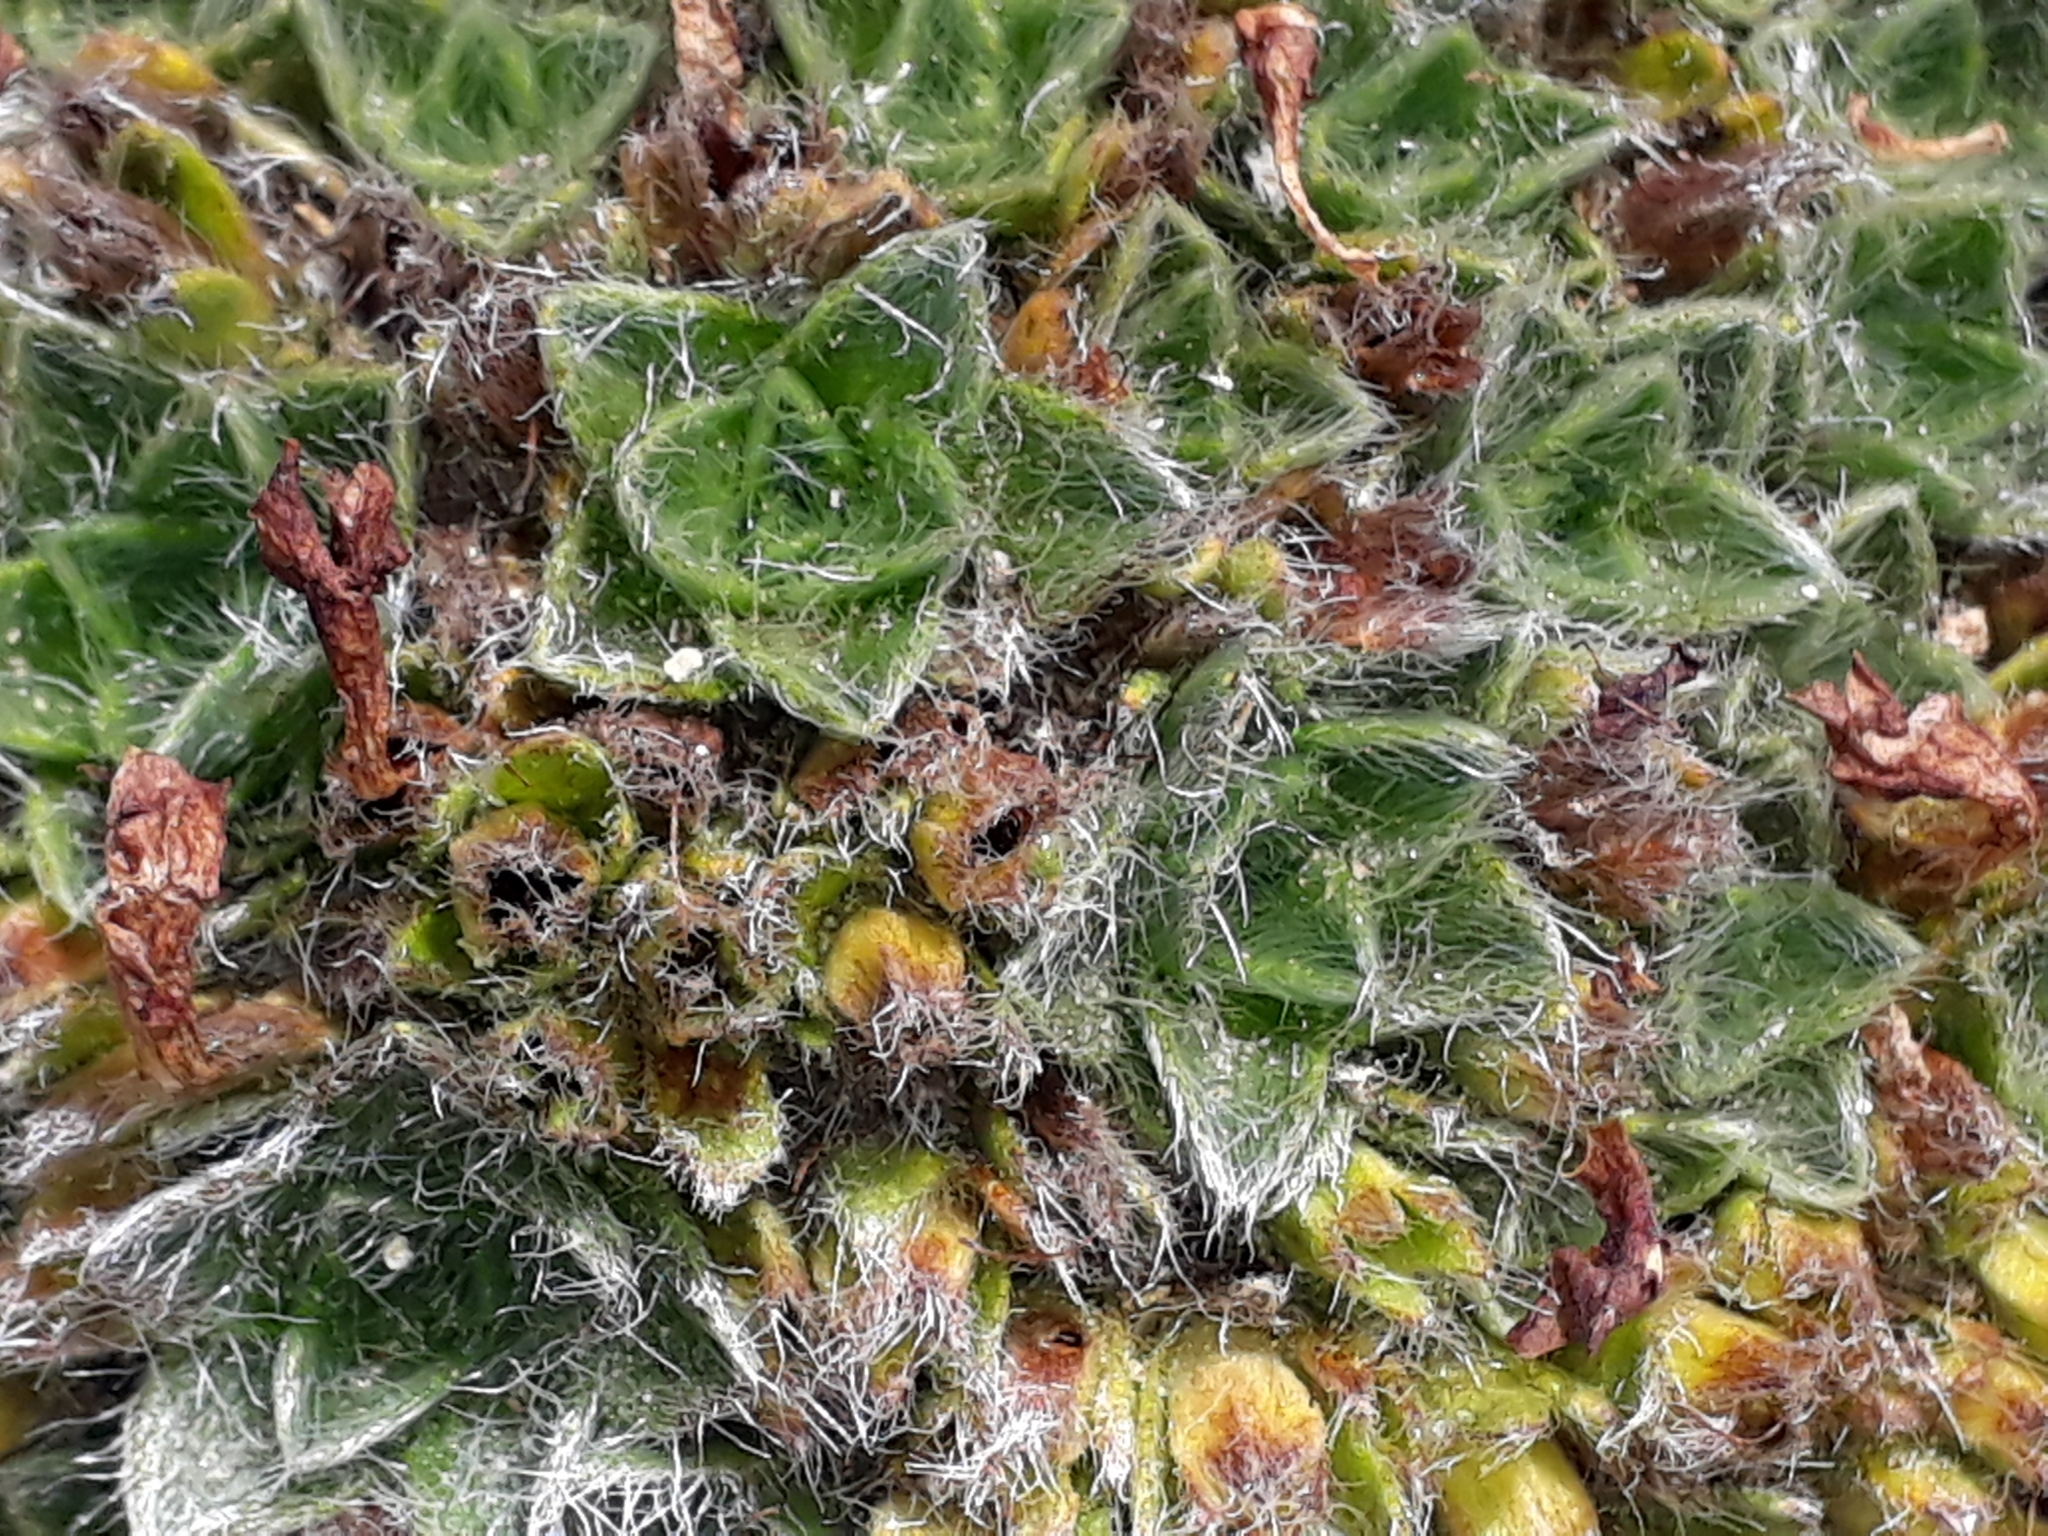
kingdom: Plantae
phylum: Tracheophyta
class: Magnoliopsida
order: Boraginales
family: Boraginaceae
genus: Myosotis
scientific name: Myosotis pulvinaris
